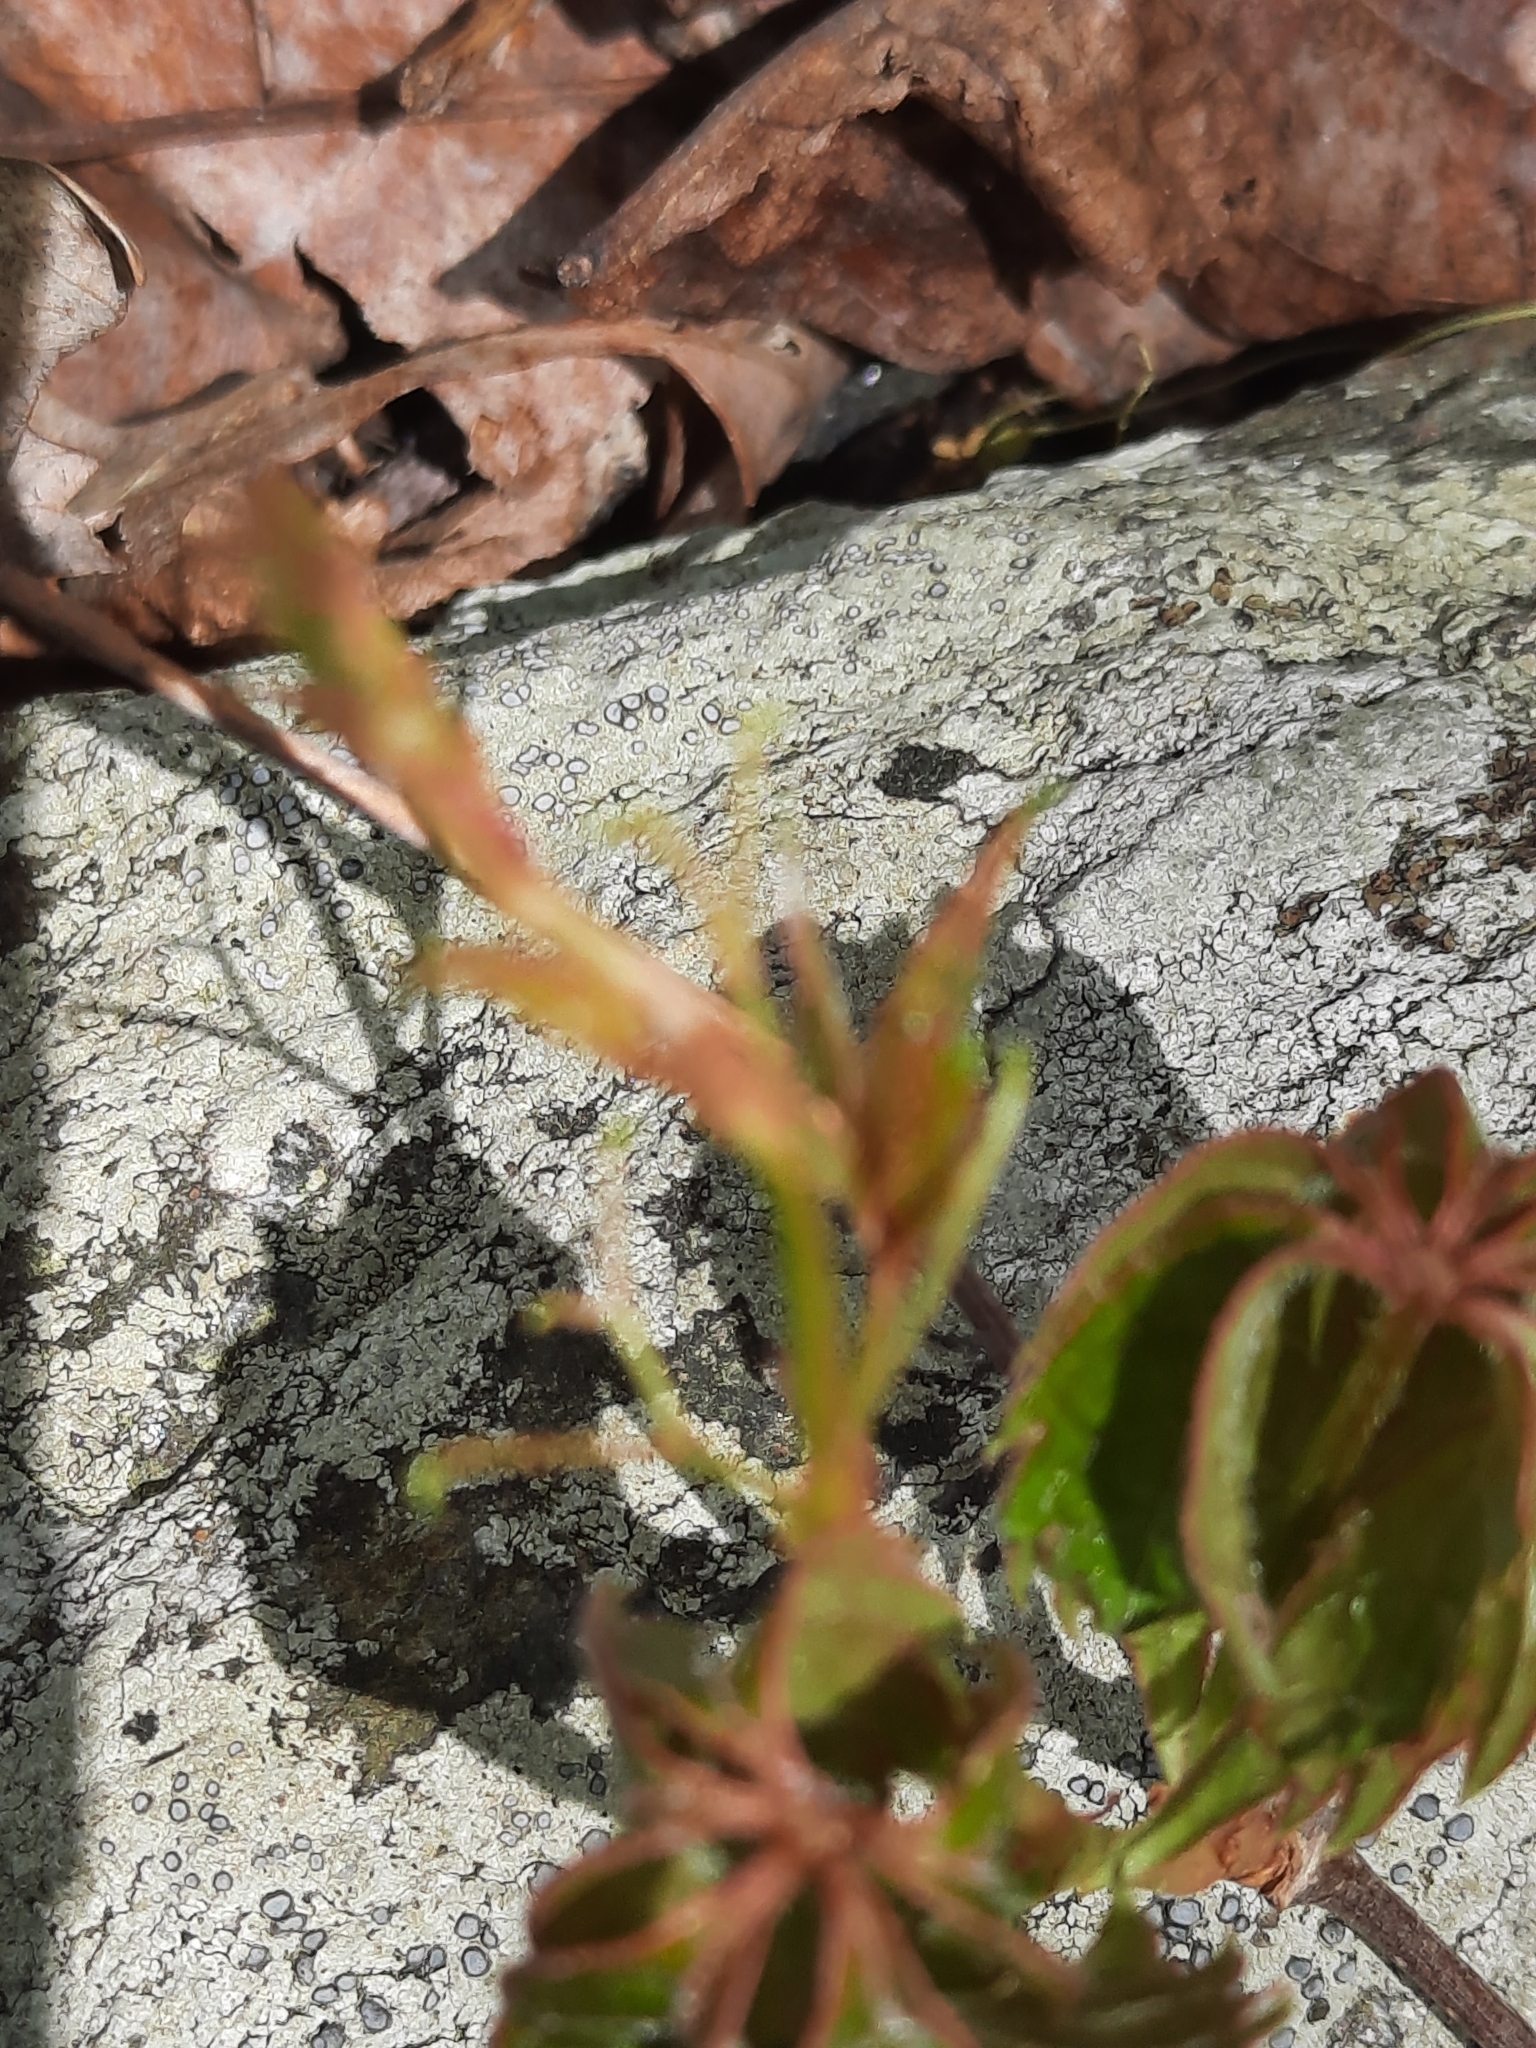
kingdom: Plantae
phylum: Tracheophyta
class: Magnoliopsida
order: Vitales
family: Vitaceae
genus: Parthenocissus
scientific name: Parthenocissus quinquefolia
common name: Virginia-creeper
